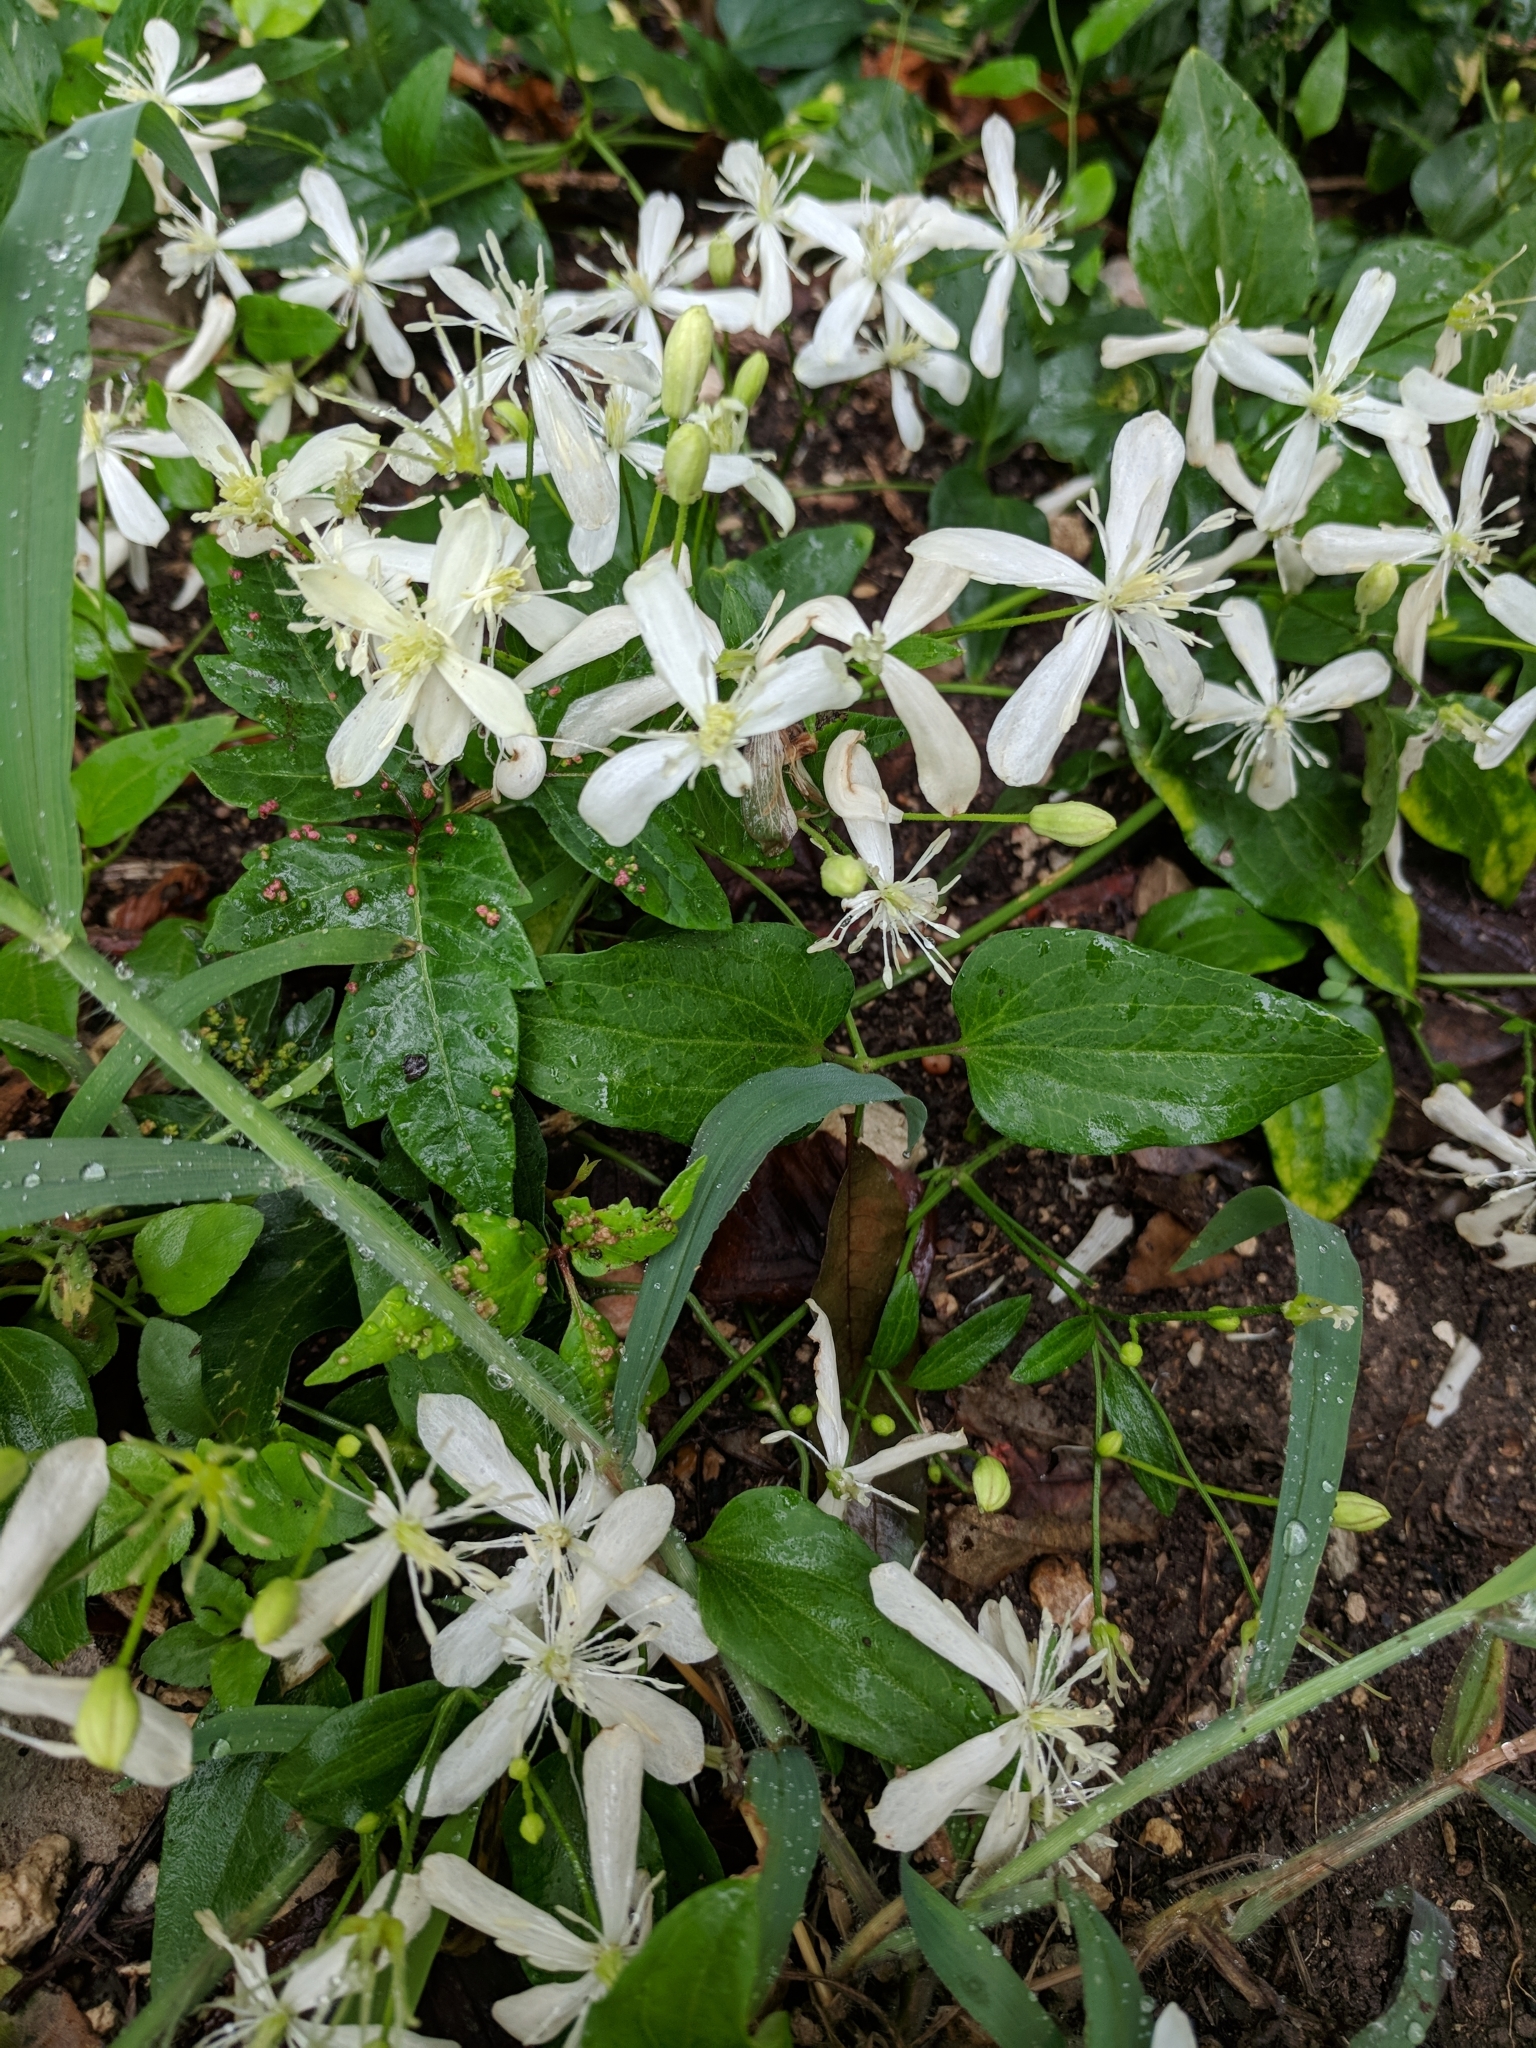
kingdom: Plantae
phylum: Tracheophyta
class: Magnoliopsida
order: Ranunculales
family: Ranunculaceae
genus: Clematis
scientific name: Clematis terniflora
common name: Sweet autumn clematis
